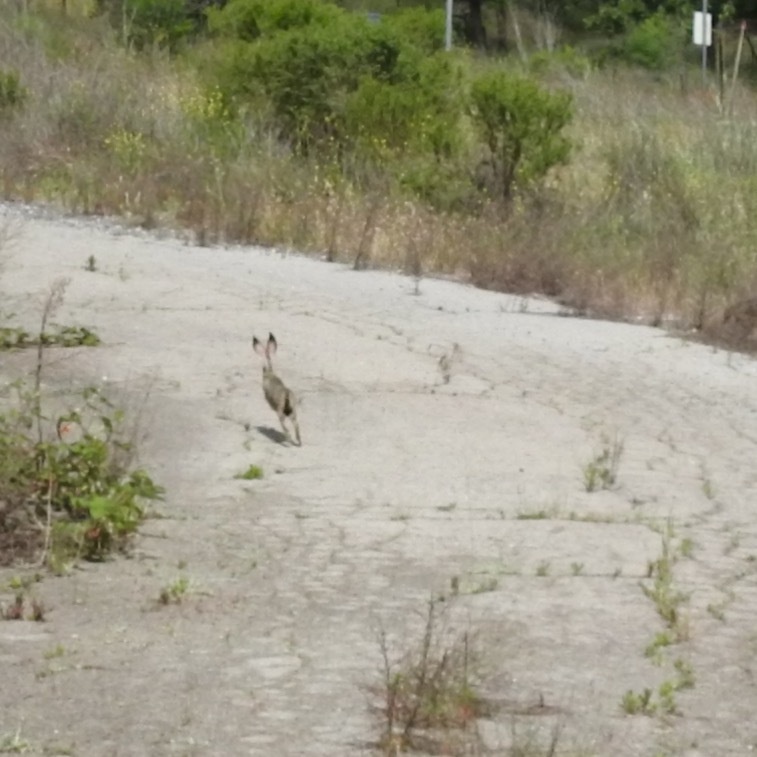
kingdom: Animalia
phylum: Chordata
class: Mammalia
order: Lagomorpha
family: Leporidae
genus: Lepus
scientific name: Lepus californicus
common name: Black-tailed jackrabbit
